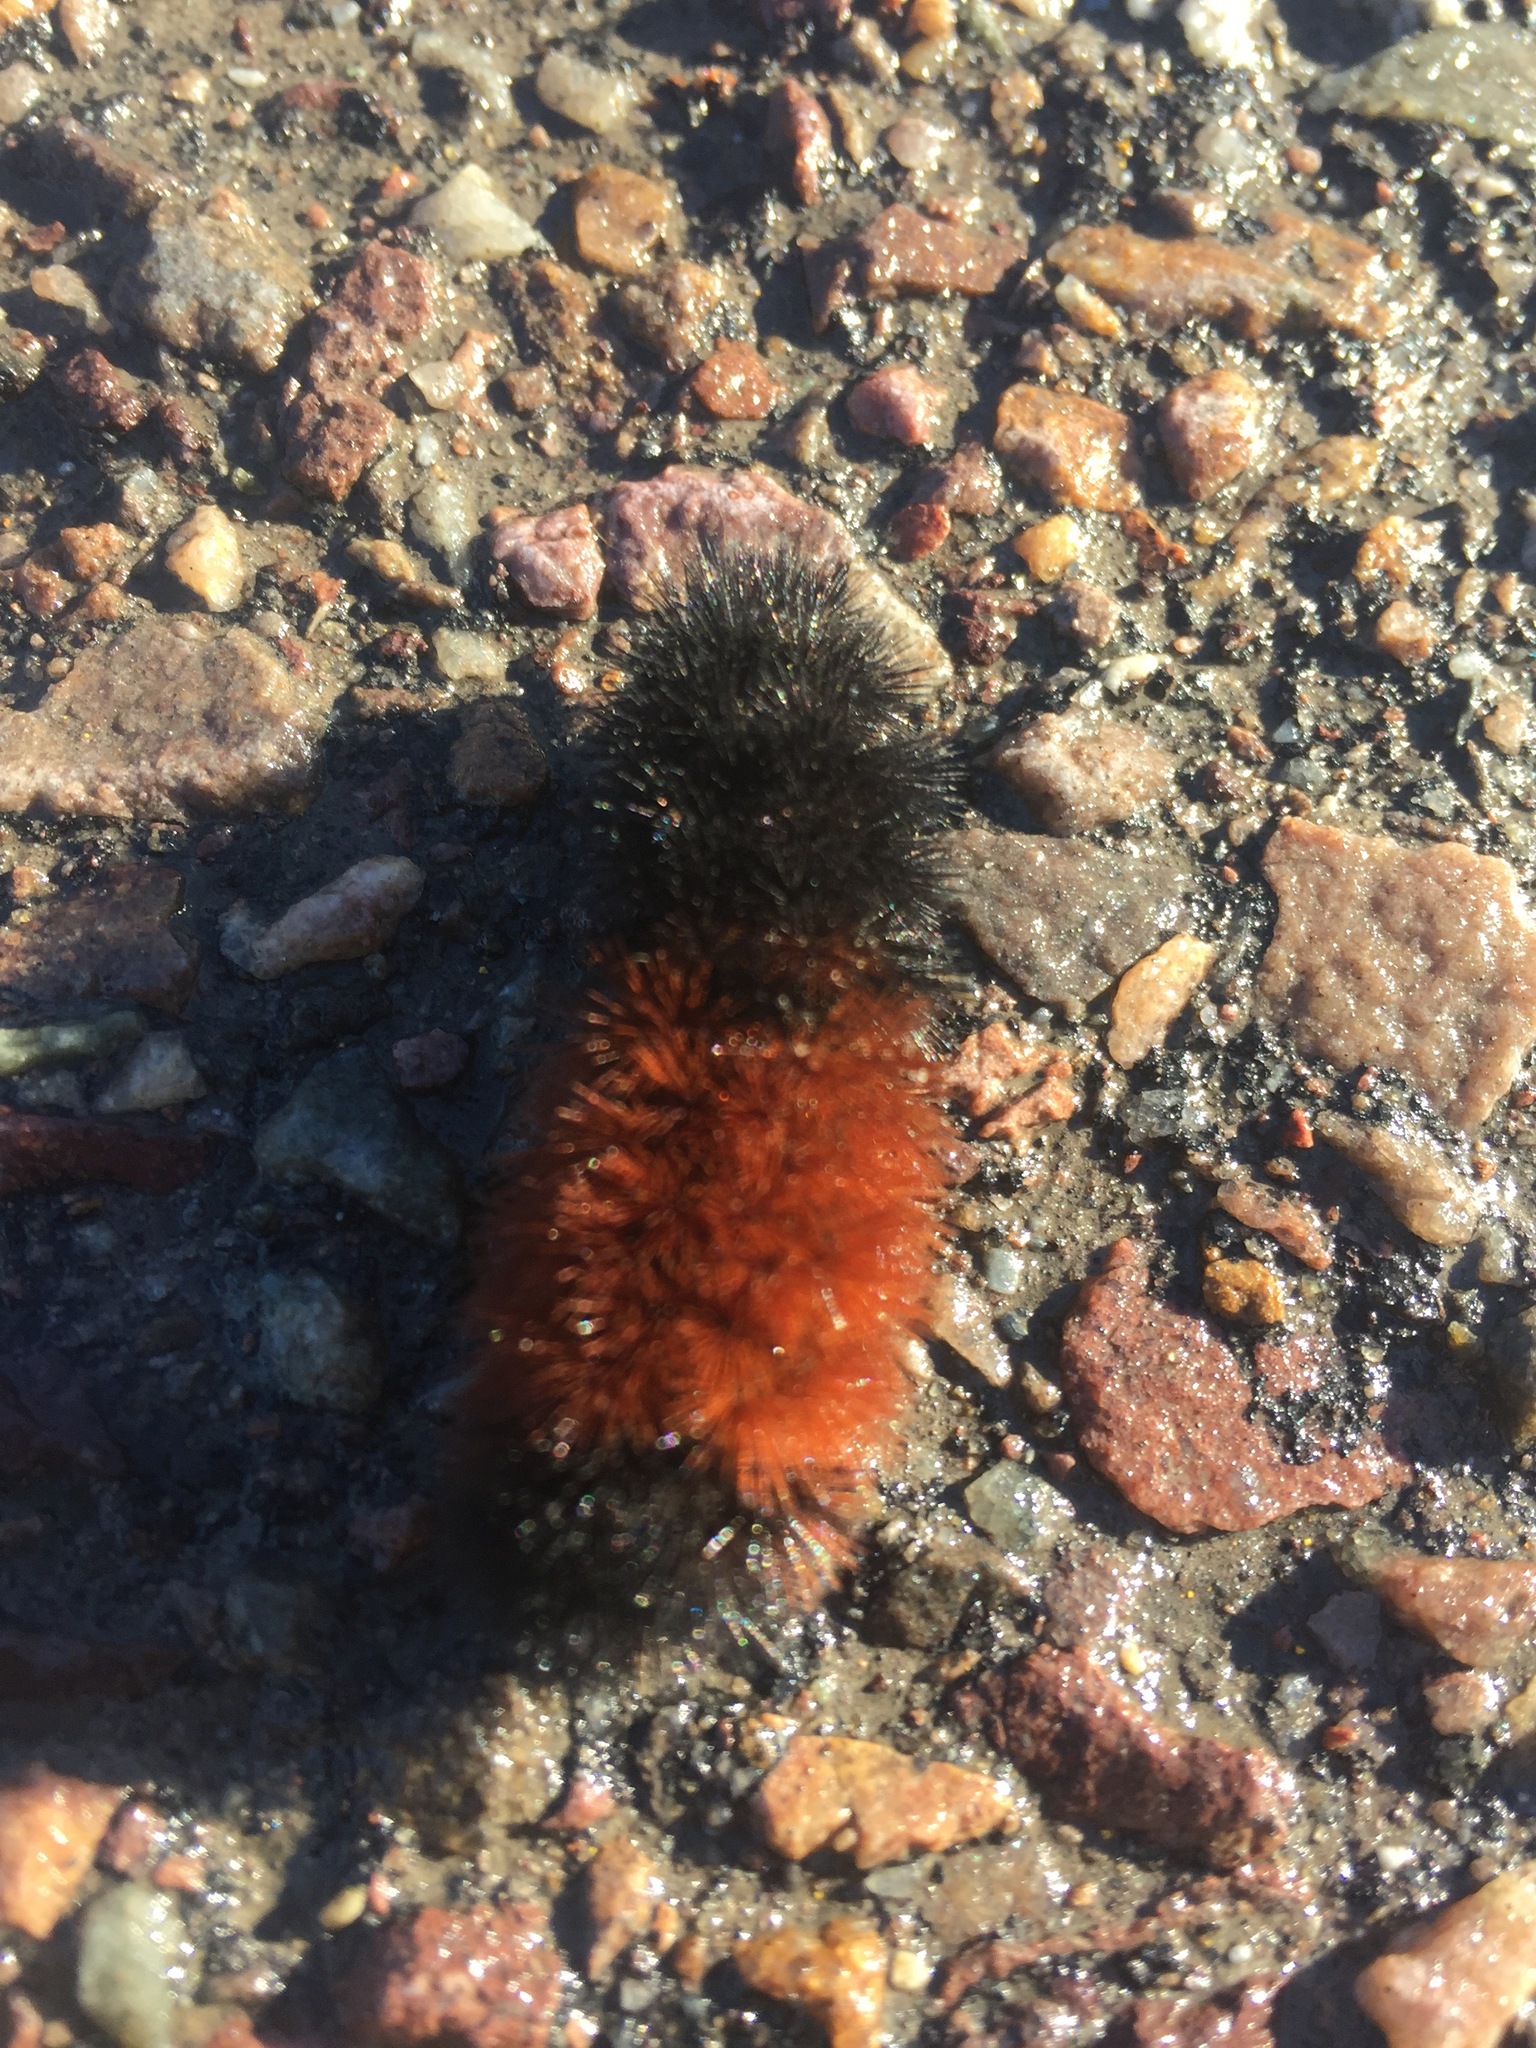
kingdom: Animalia
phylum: Arthropoda
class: Insecta
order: Lepidoptera
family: Erebidae
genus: Pyrrharctia
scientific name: Pyrrharctia isabella
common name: Isabella tiger moth
